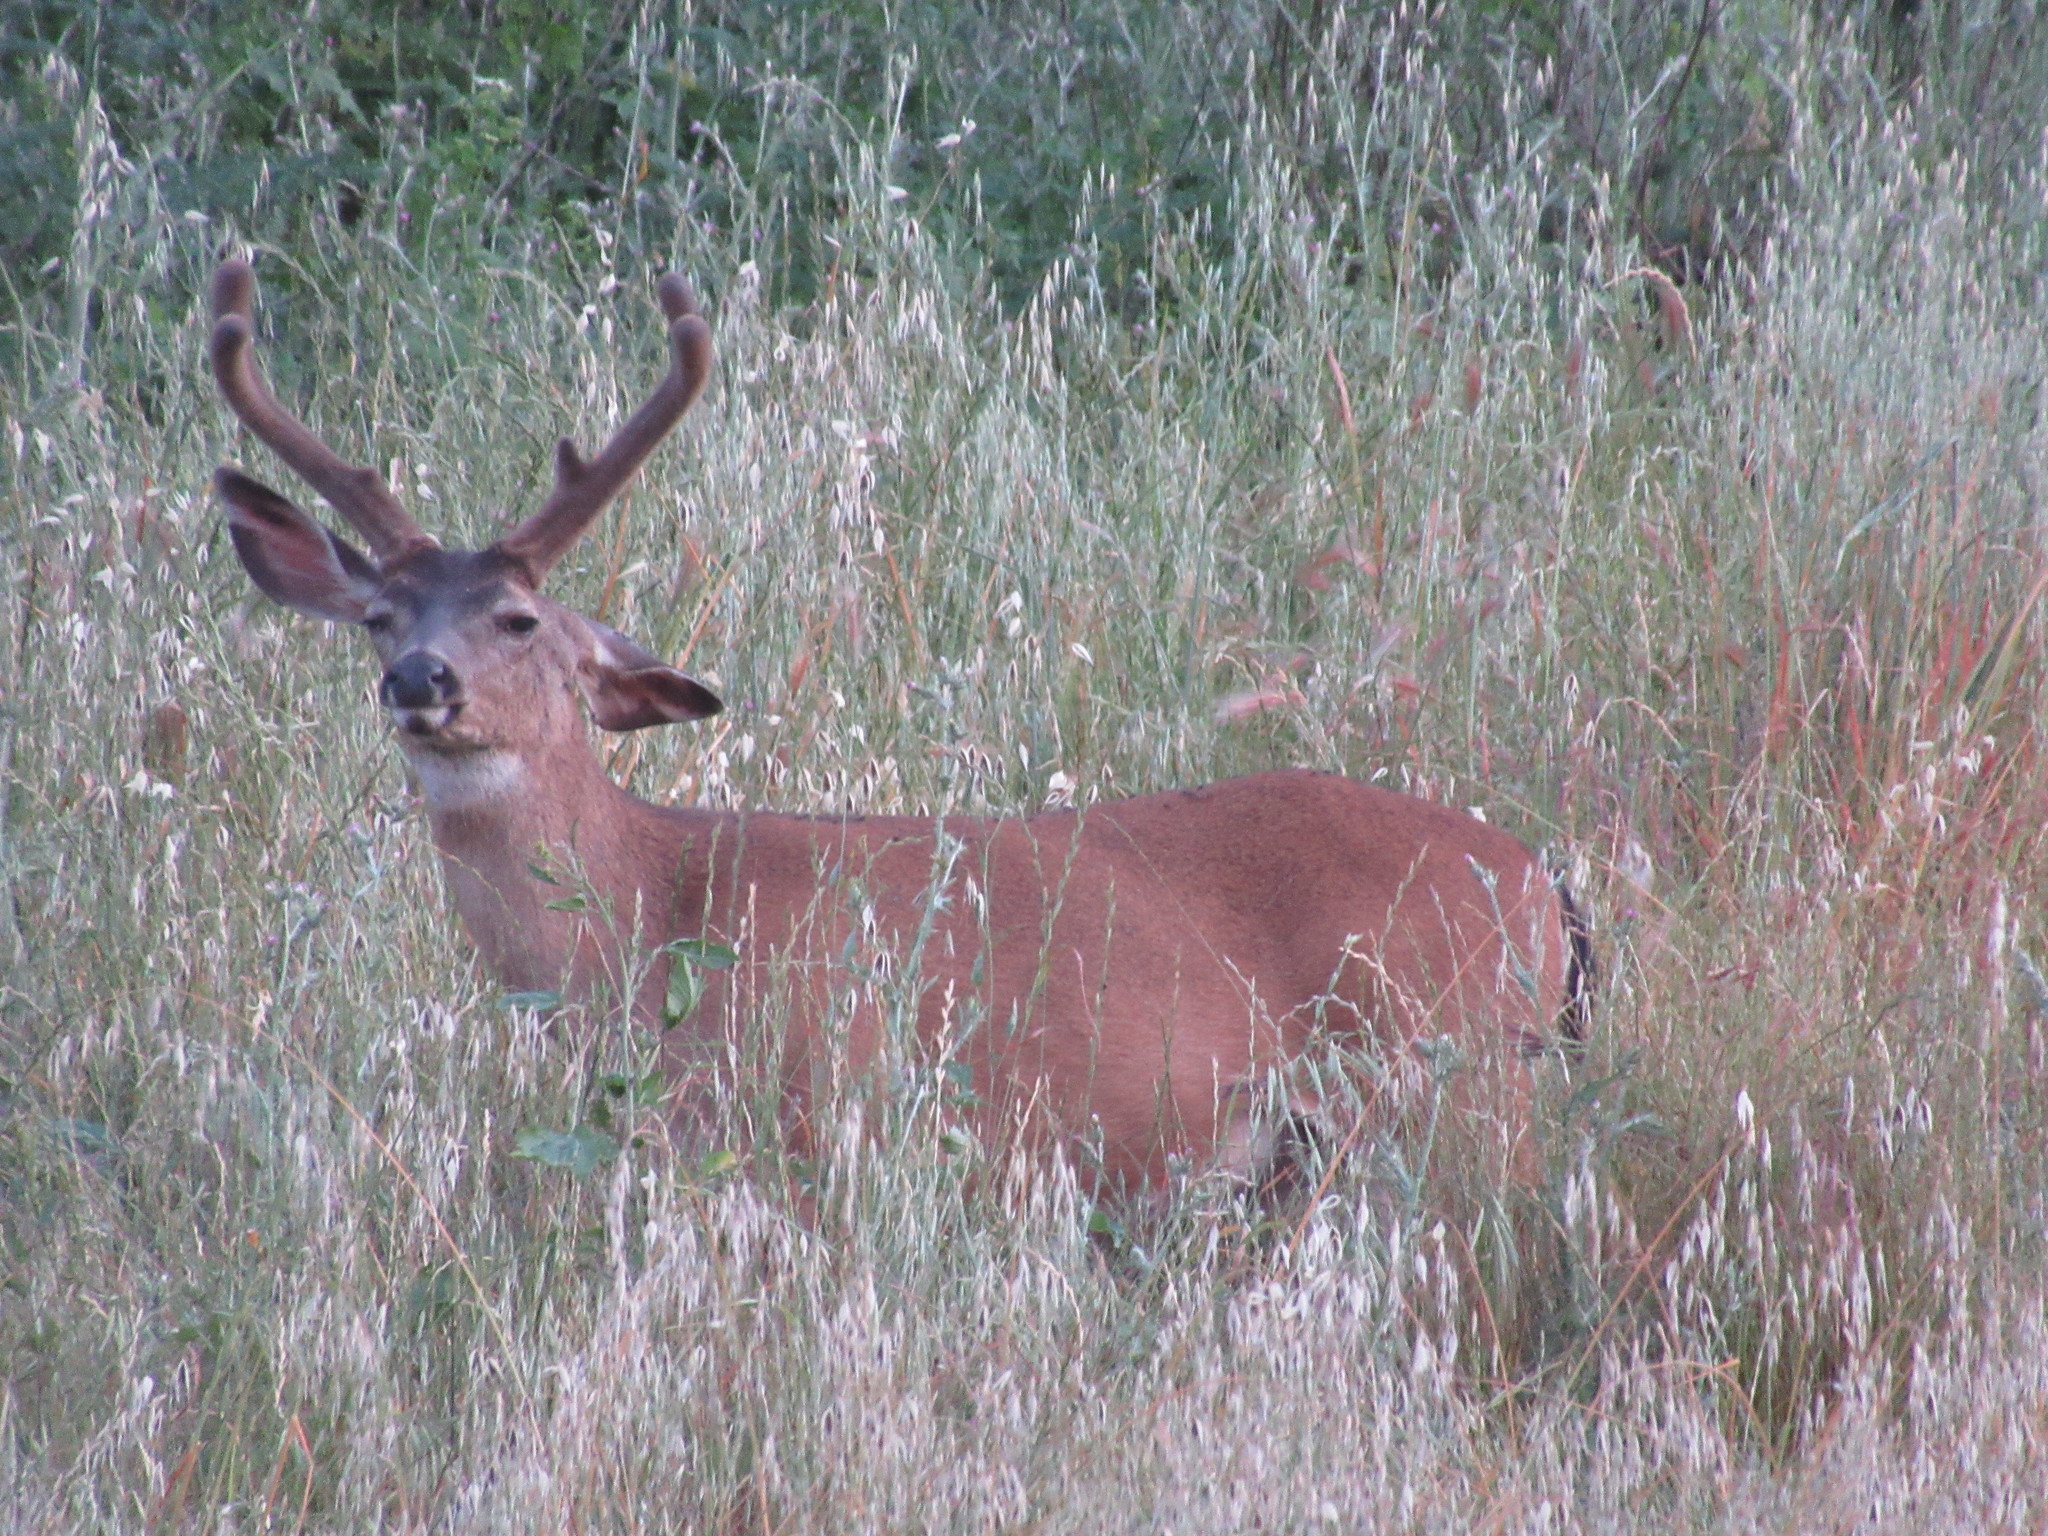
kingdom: Animalia
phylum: Chordata
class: Mammalia
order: Artiodactyla
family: Cervidae
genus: Odocoileus
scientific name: Odocoileus hemionus
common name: Mule deer
